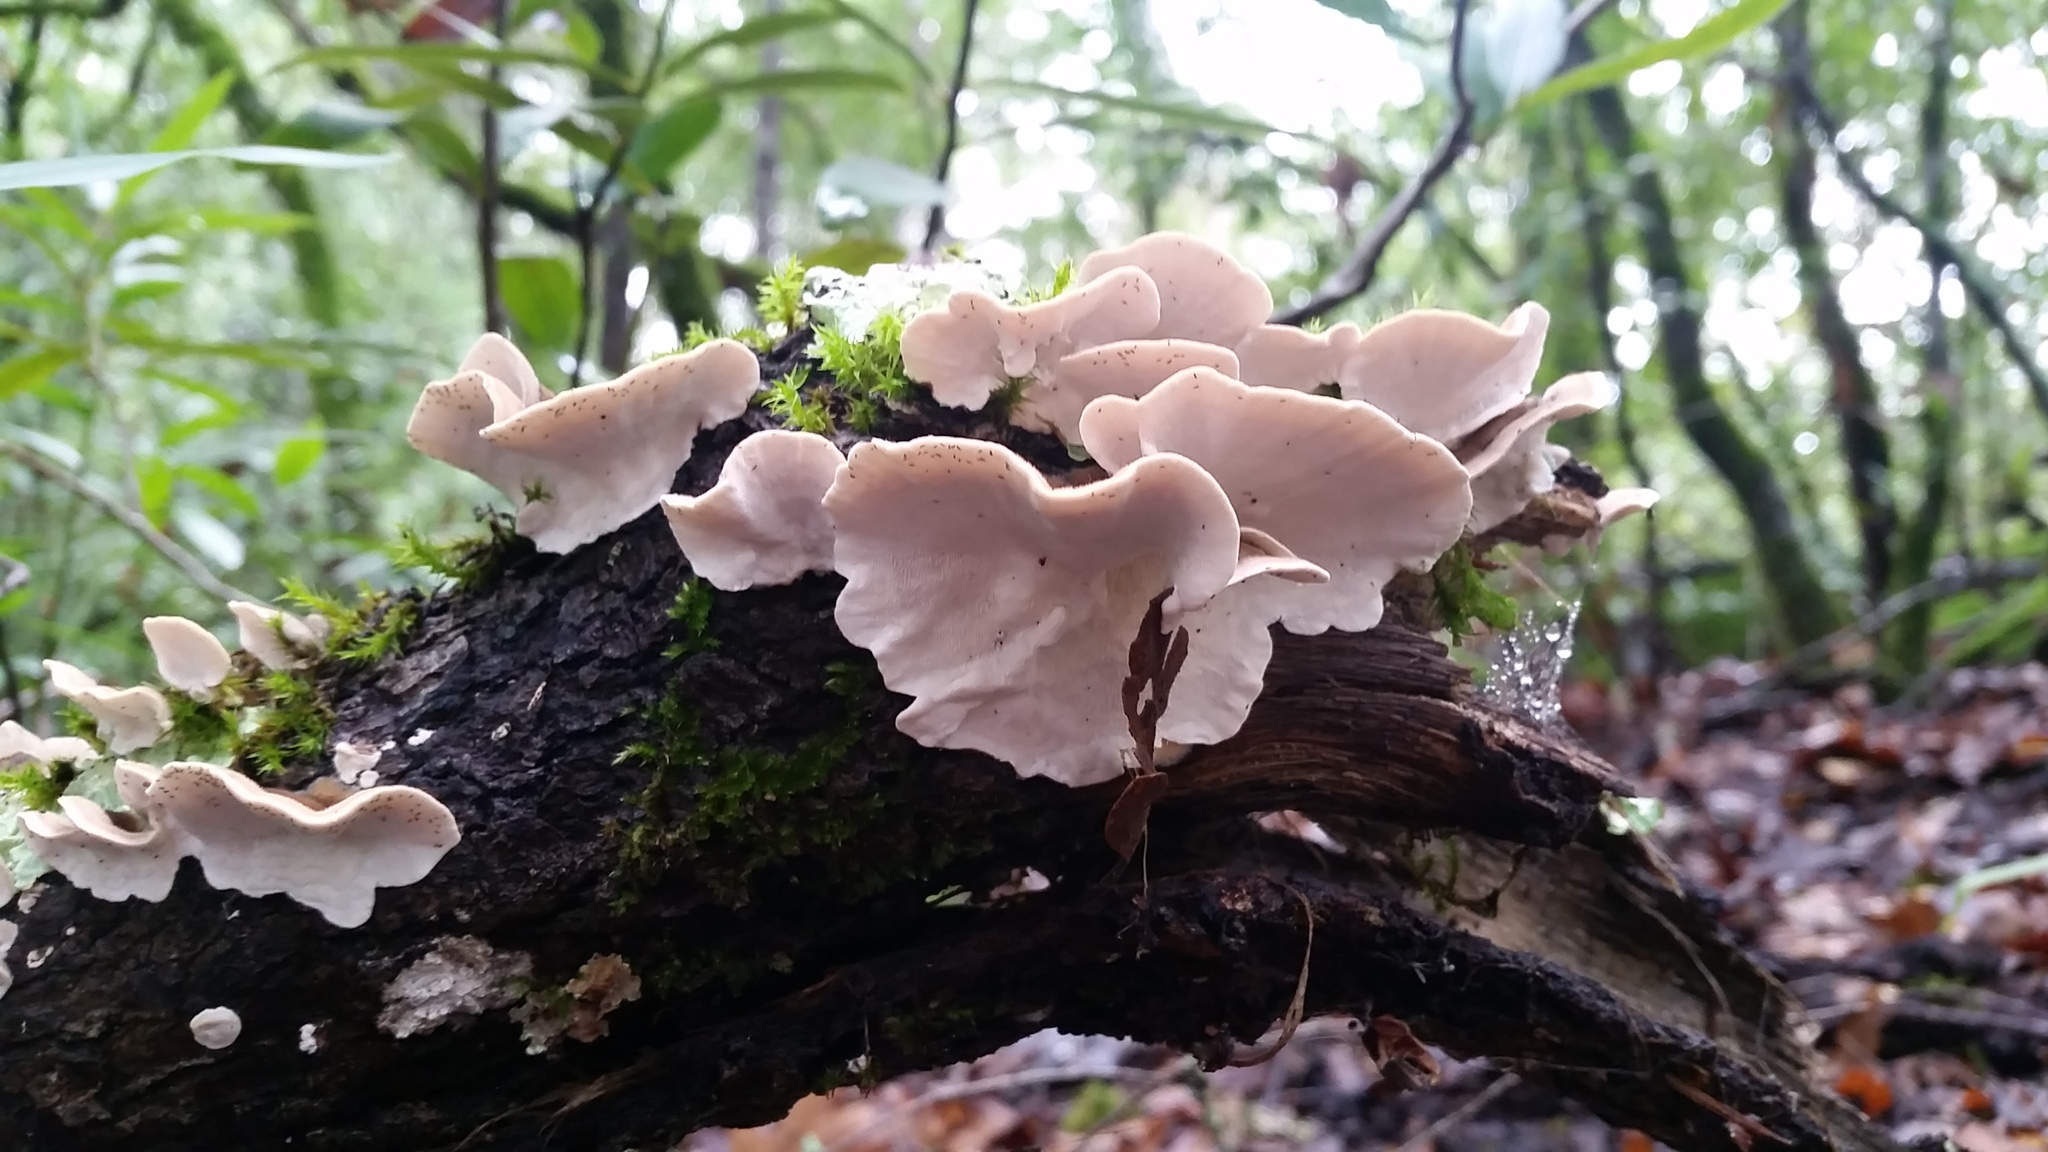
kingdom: Fungi
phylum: Basidiomycota
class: Agaricomycetes
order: Polyporales
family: Polyporaceae
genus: Trametes
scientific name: Trametes versicolor
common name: Turkeytail
